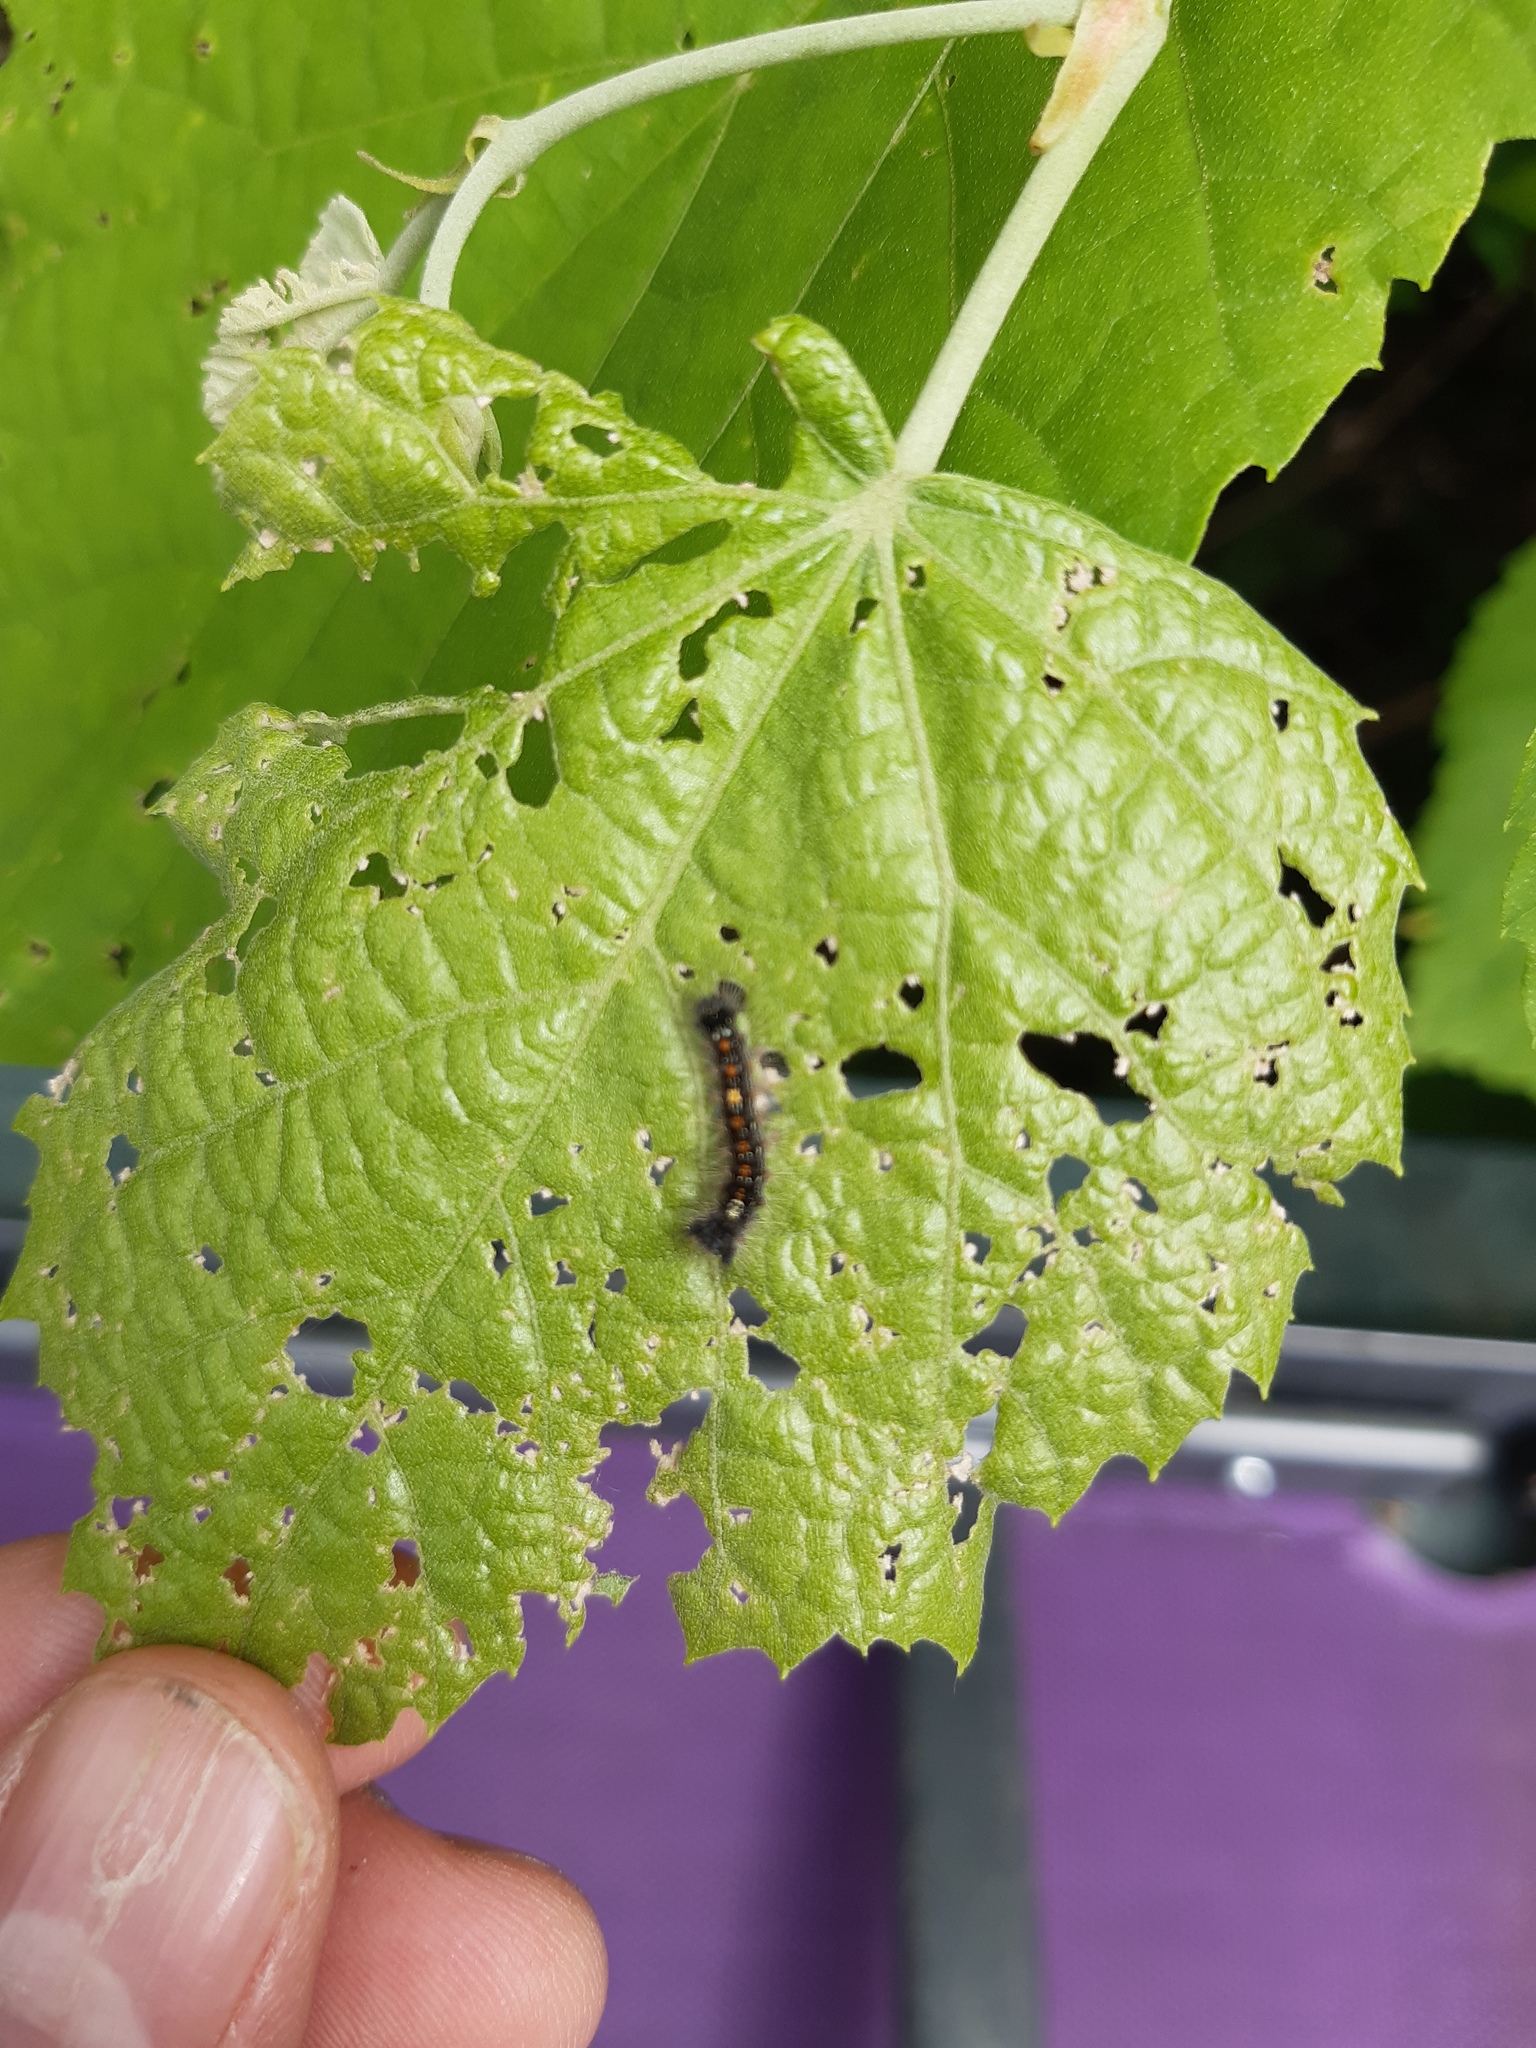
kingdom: Animalia
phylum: Arthropoda
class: Insecta
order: Lepidoptera
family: Erebidae
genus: Lymantria
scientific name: Lymantria dispar
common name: Gypsy moth
